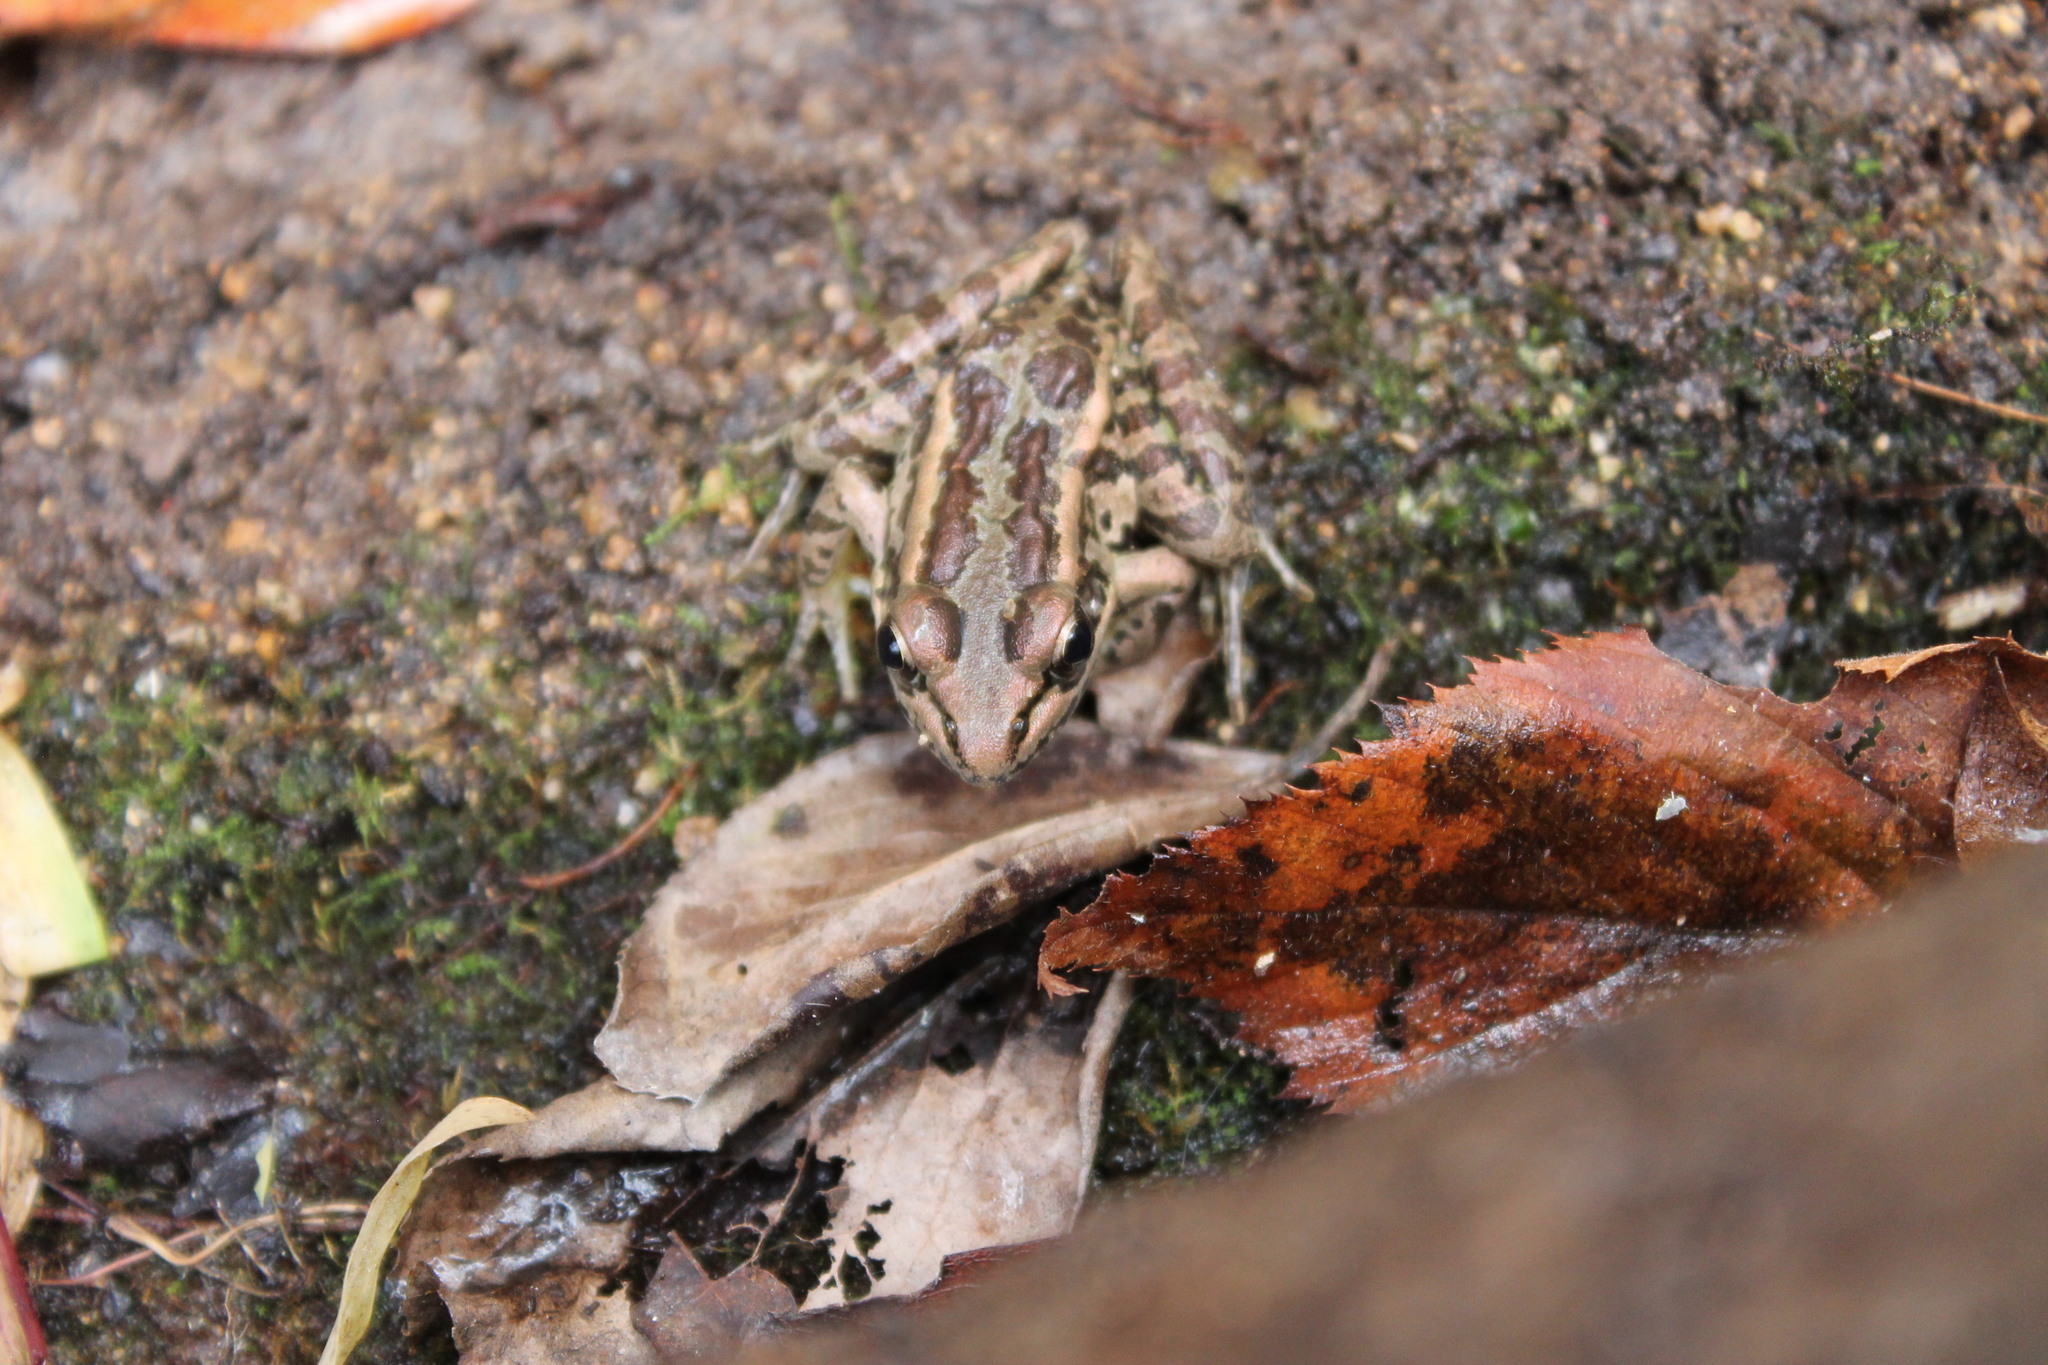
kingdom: Animalia
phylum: Chordata
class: Amphibia
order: Anura
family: Ranidae
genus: Lithobates
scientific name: Lithobates palustris
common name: Pickerel frog
